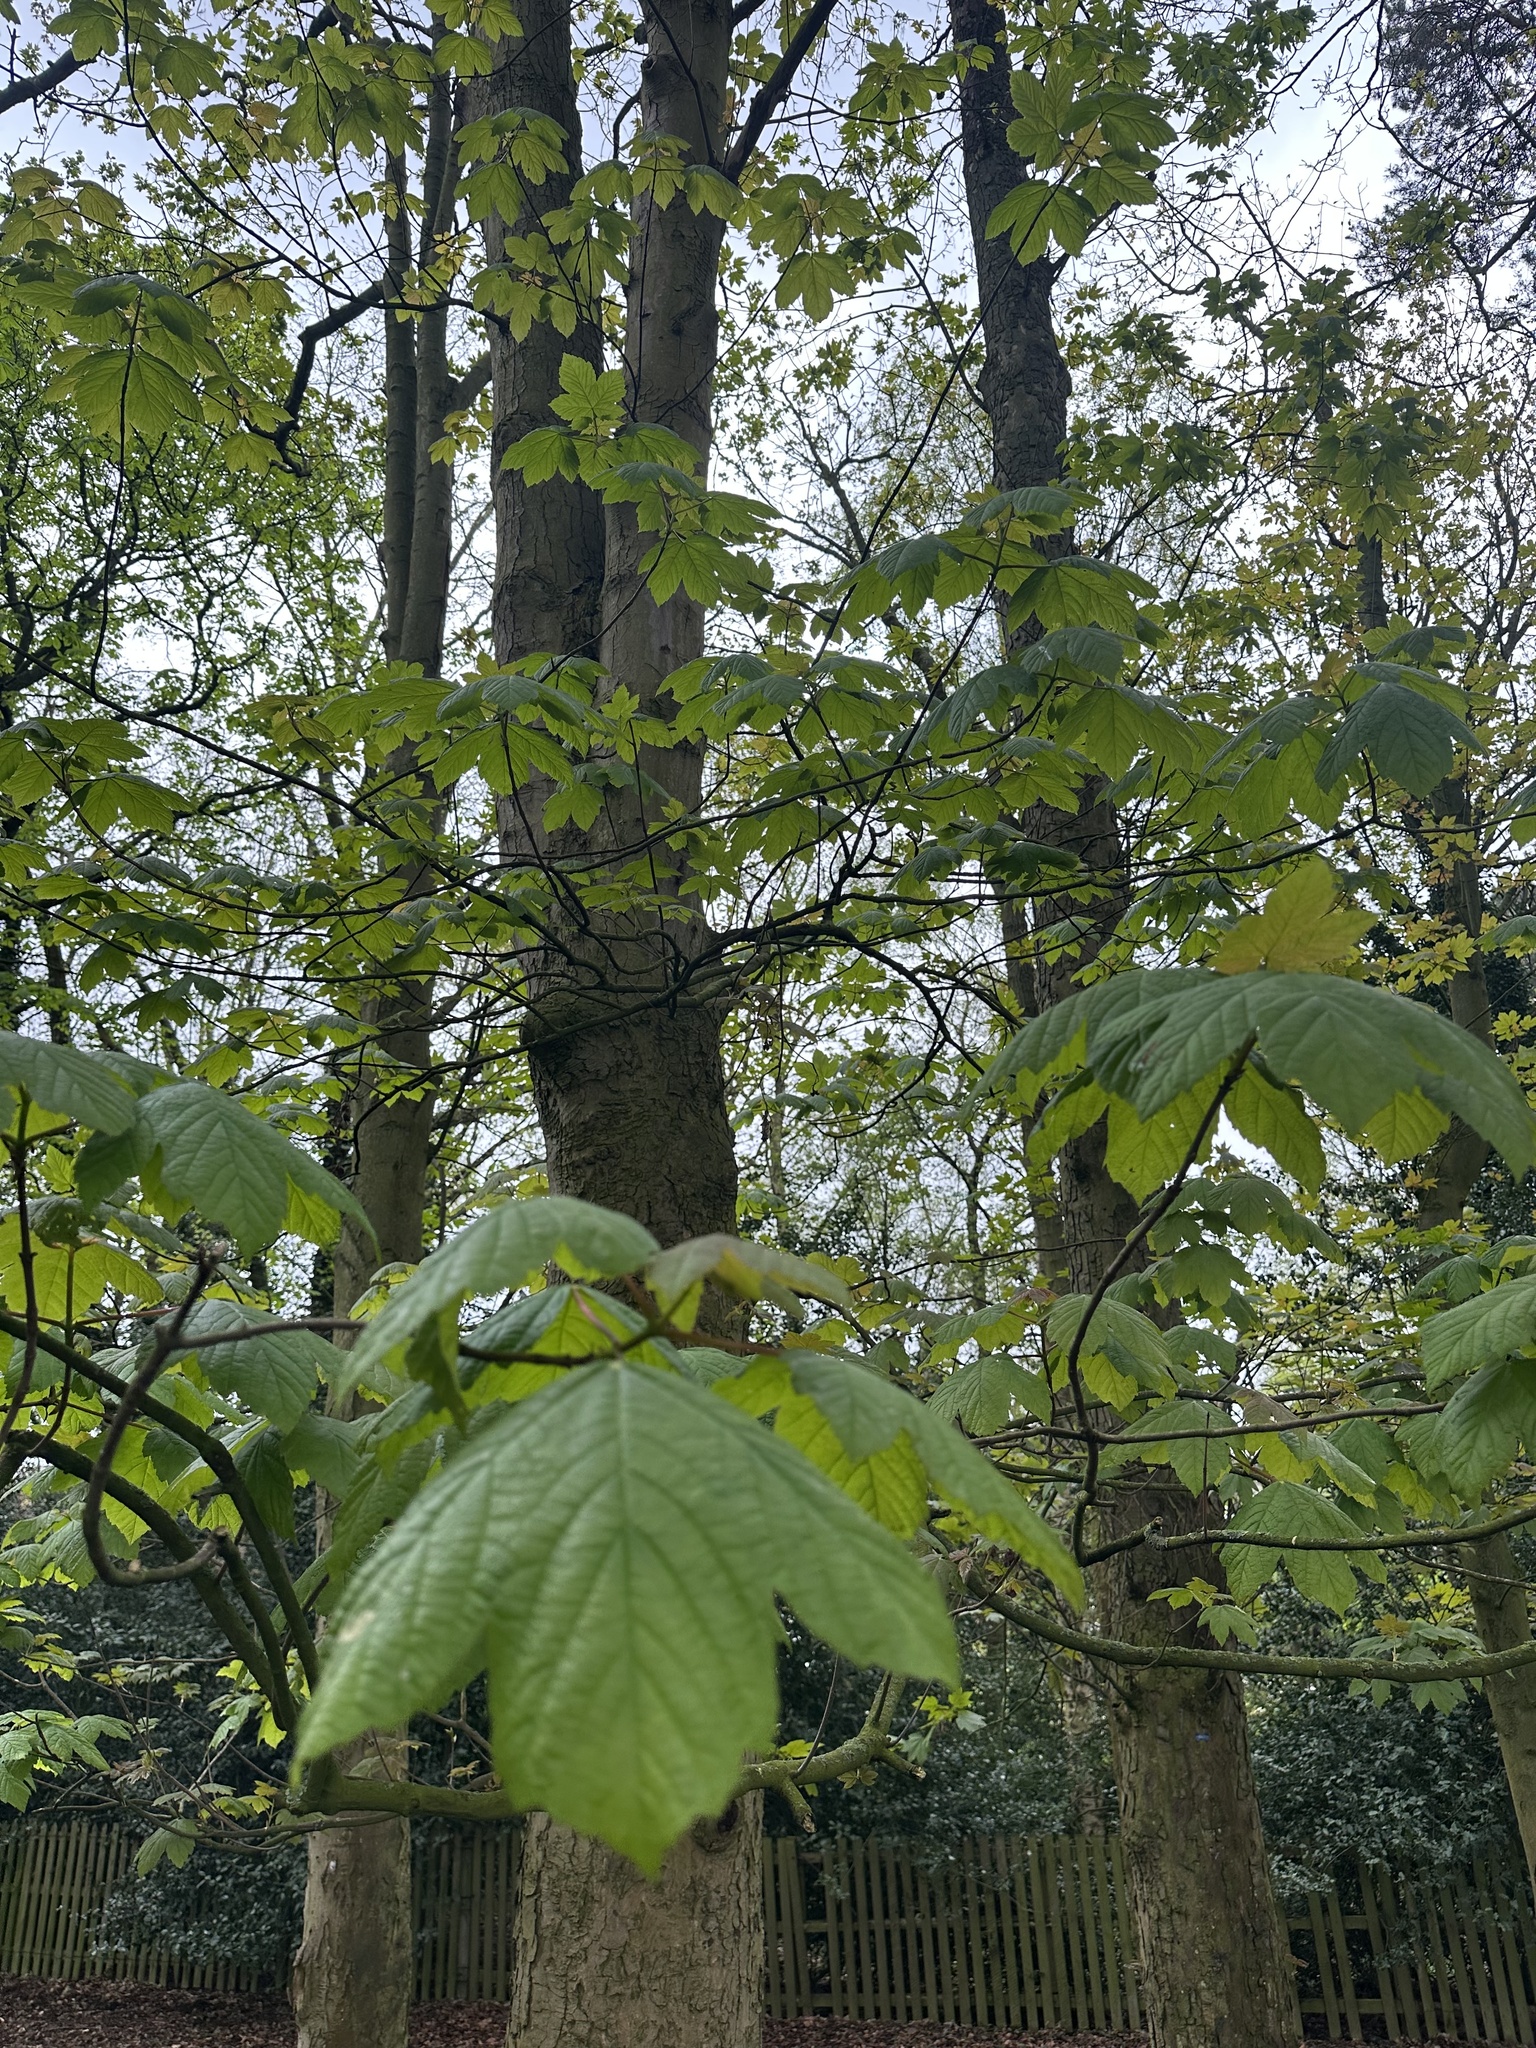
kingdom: Plantae
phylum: Tracheophyta
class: Magnoliopsida
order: Sapindales
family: Sapindaceae
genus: Acer
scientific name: Acer pseudoplatanus
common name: Sycamore
